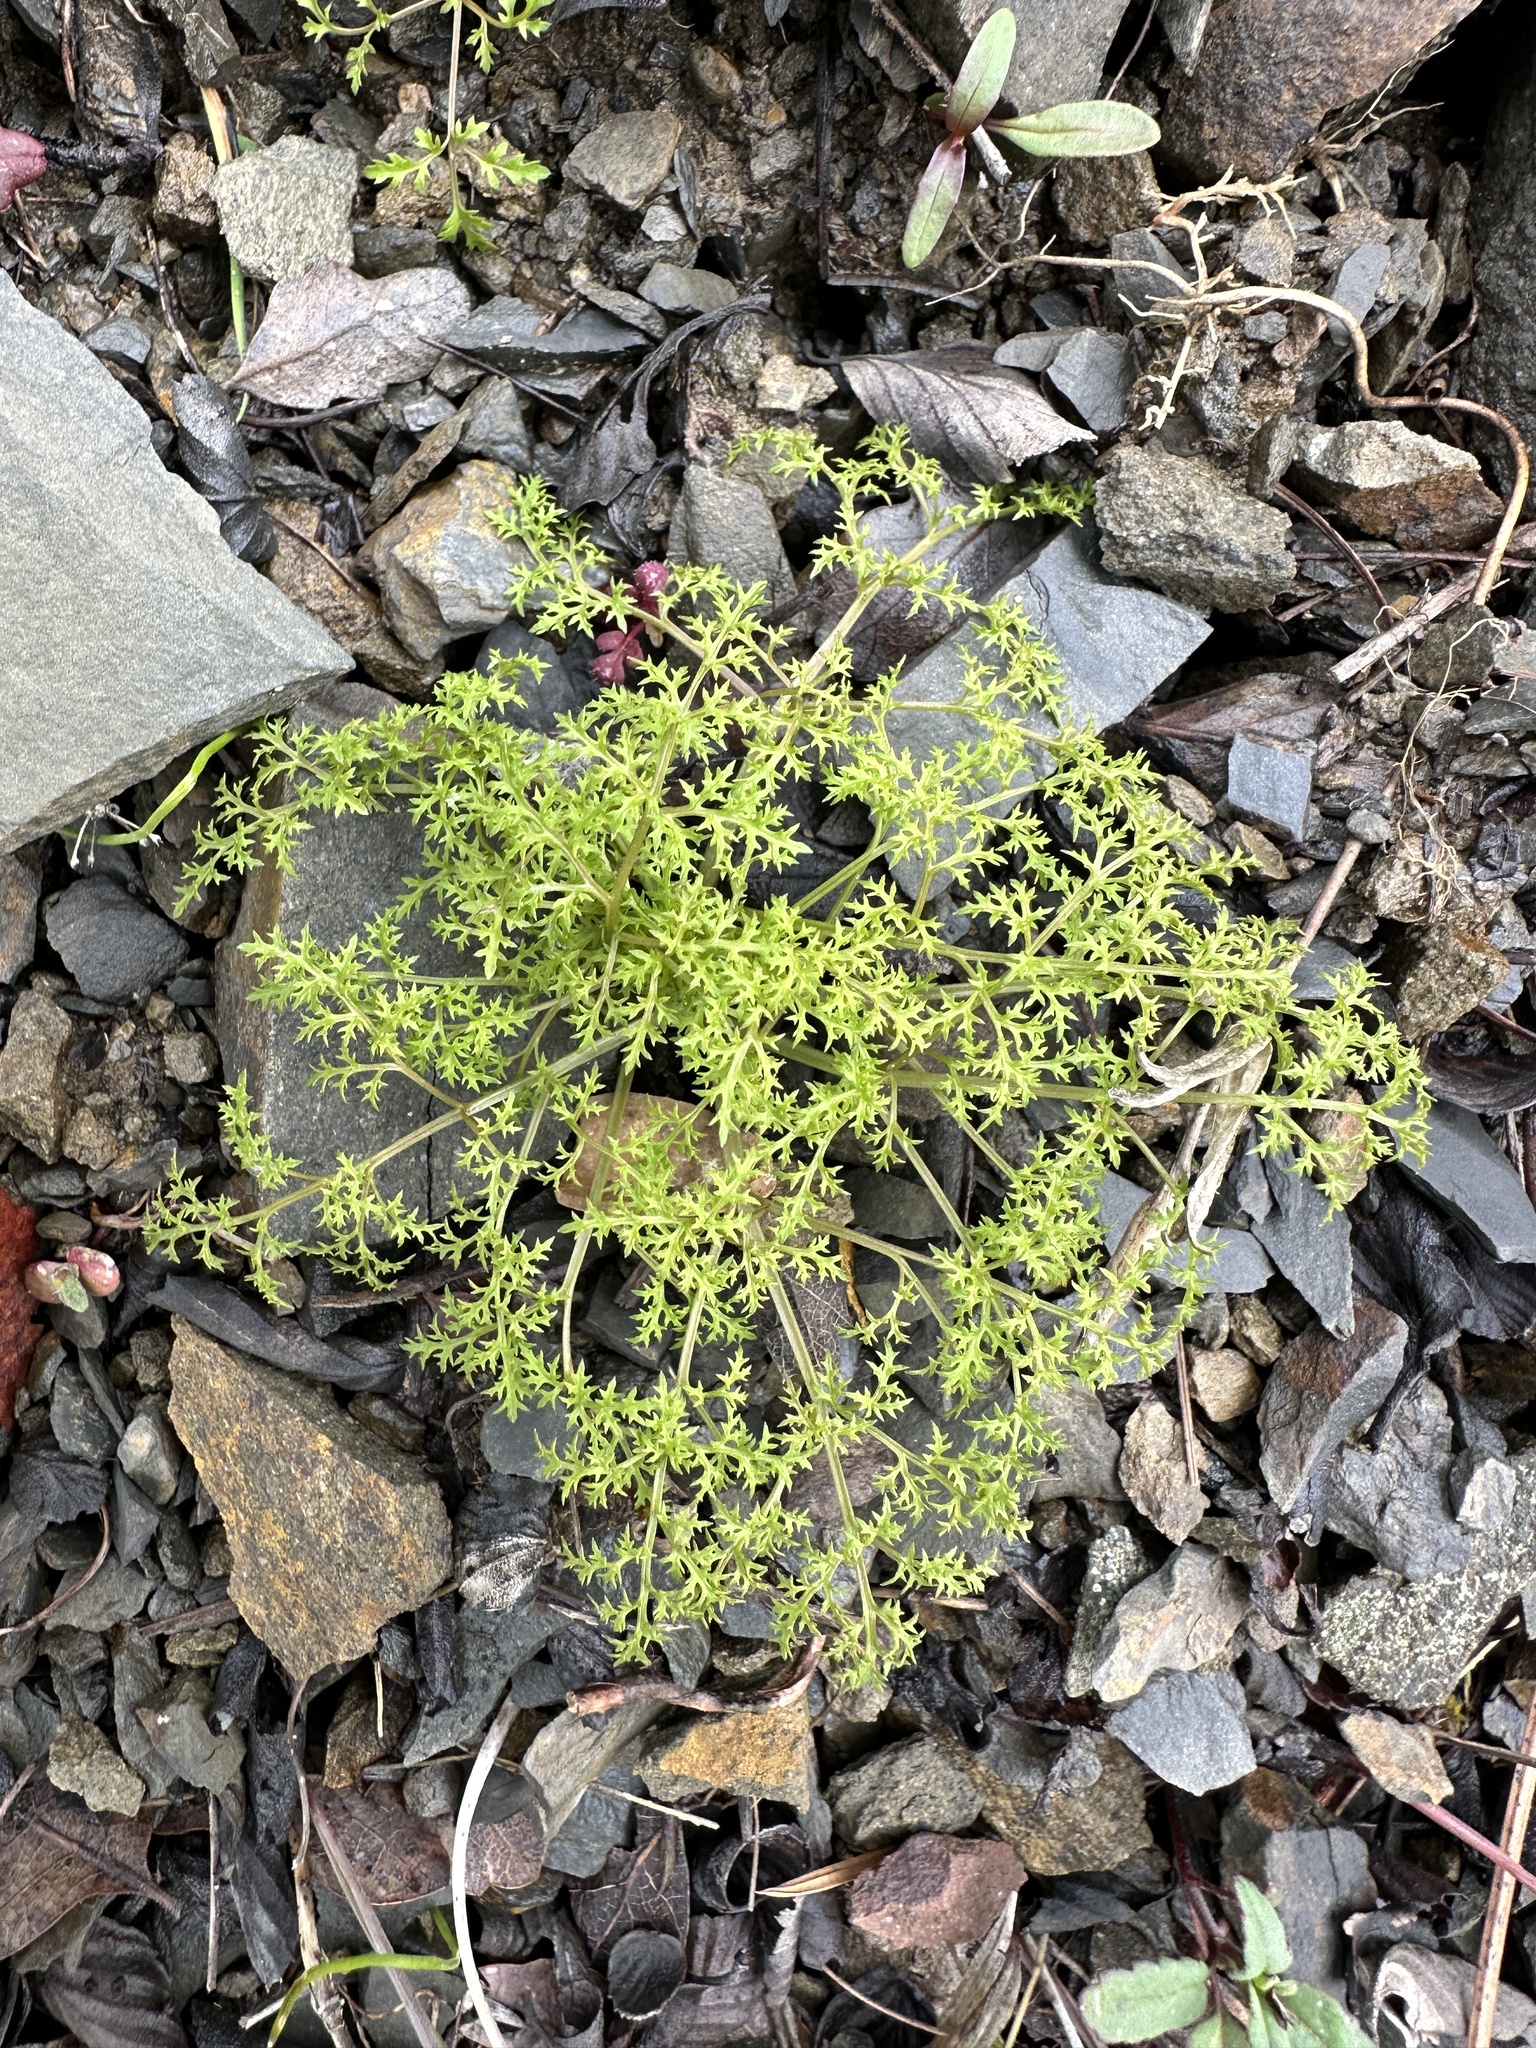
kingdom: Plantae
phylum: Tracheophyta
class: Magnoliopsida
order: Apiales
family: Apiaceae
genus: Sanicula
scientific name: Sanicula tuberosa
